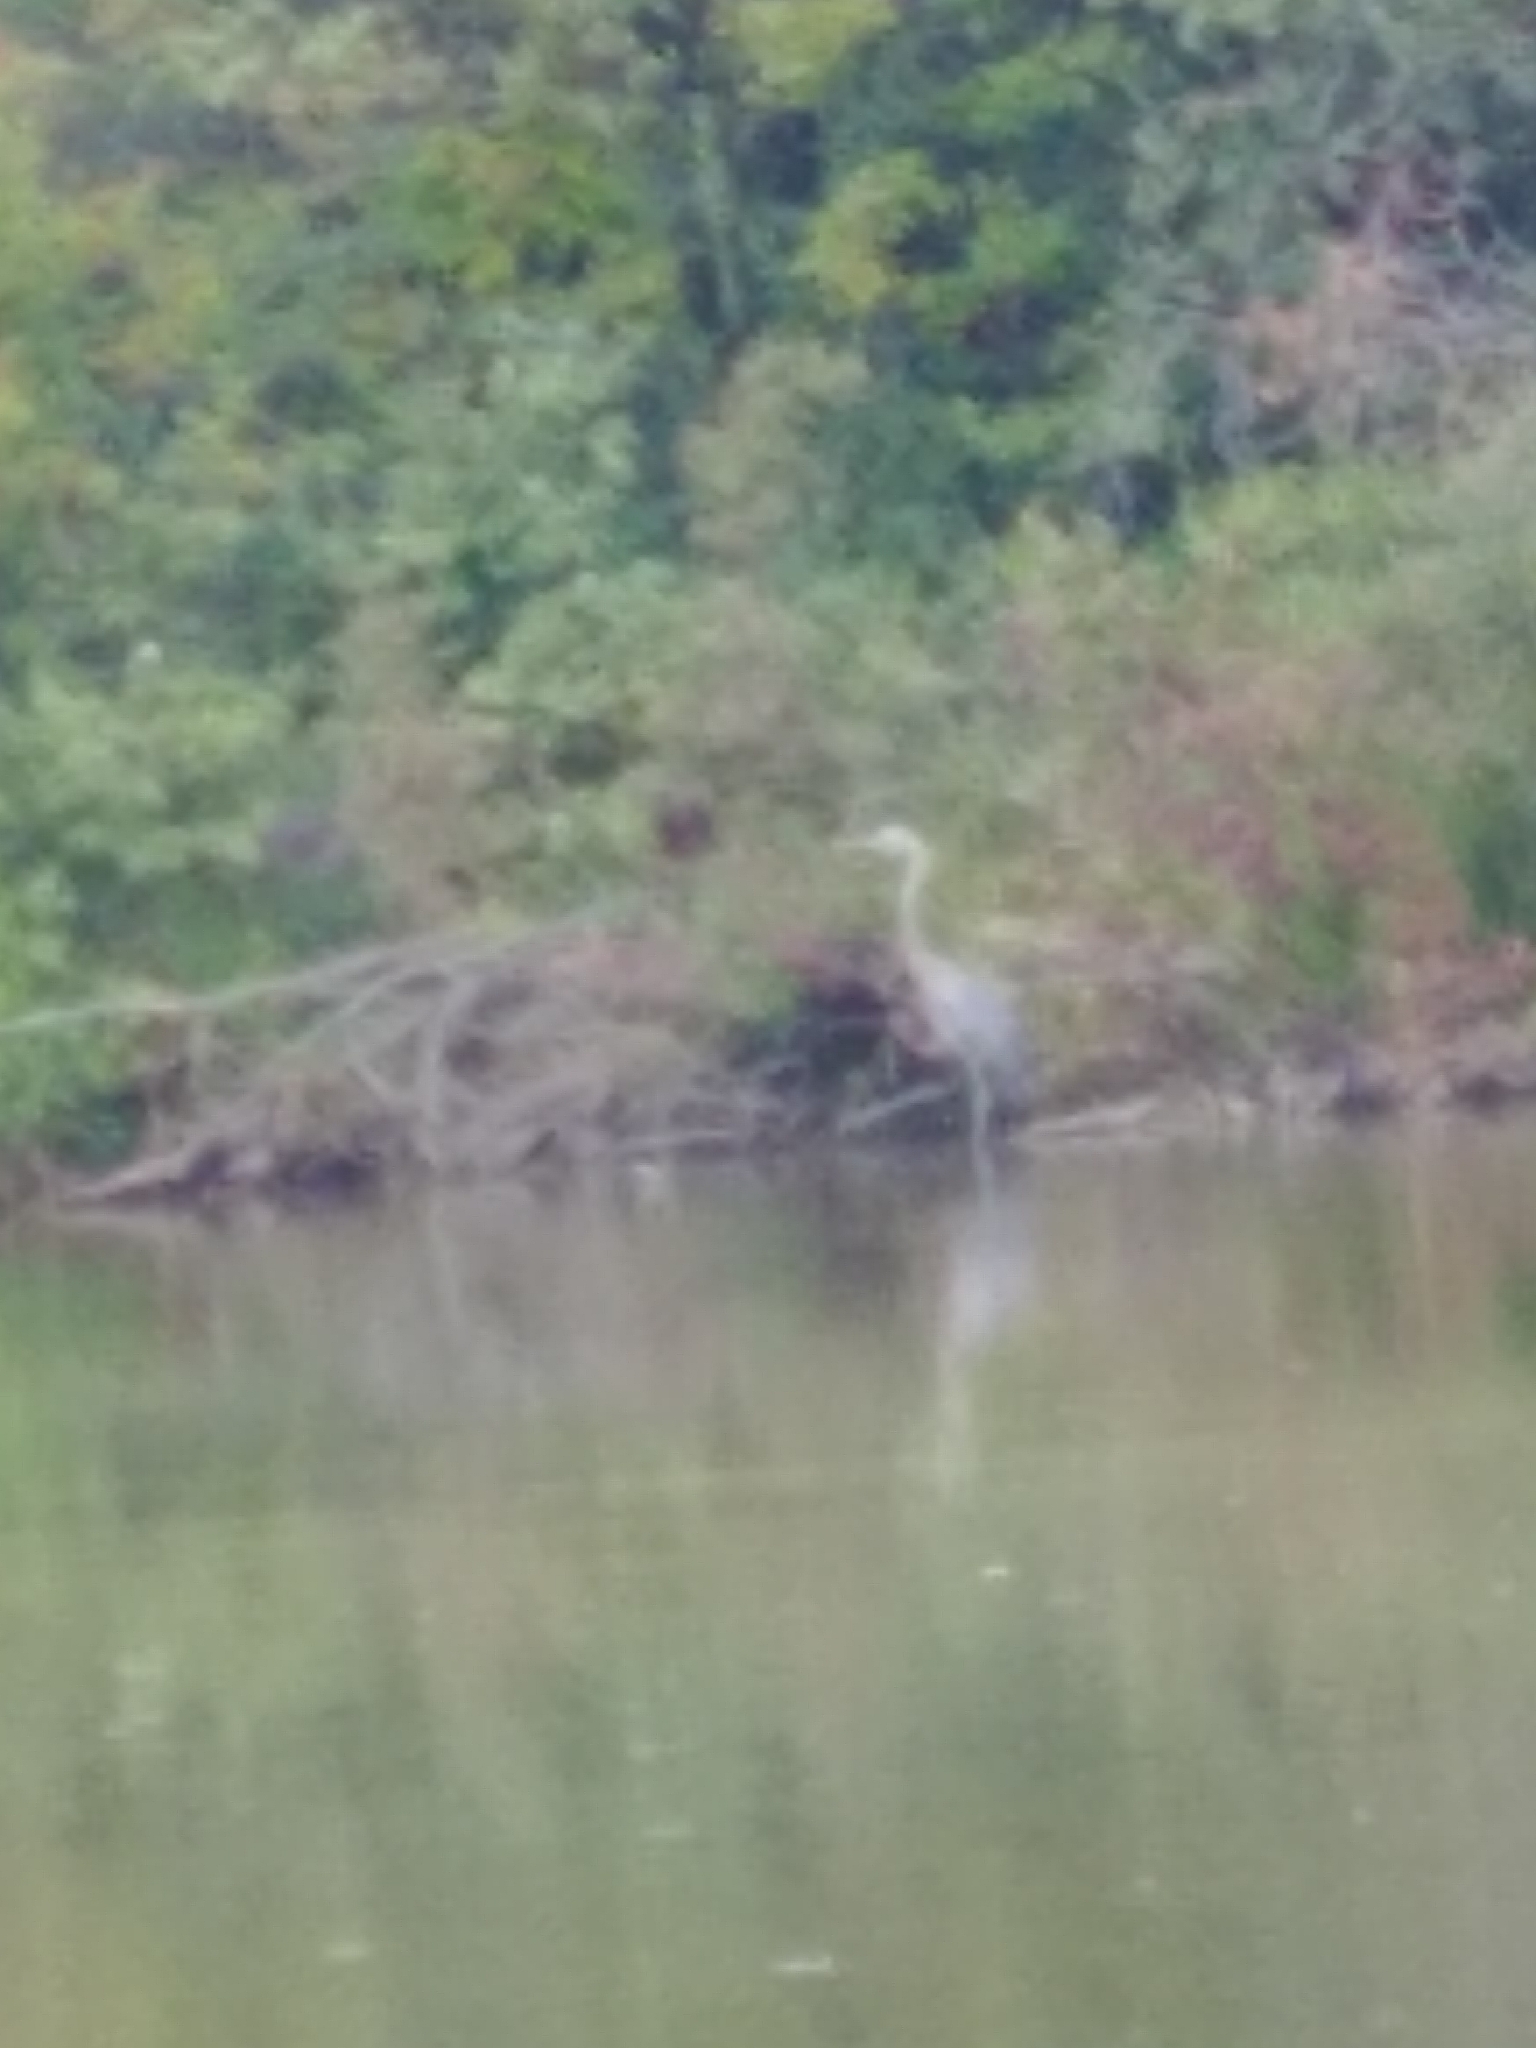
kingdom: Animalia
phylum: Chordata
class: Aves
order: Pelecaniformes
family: Ardeidae
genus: Ardea
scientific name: Ardea herodias
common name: Great blue heron
